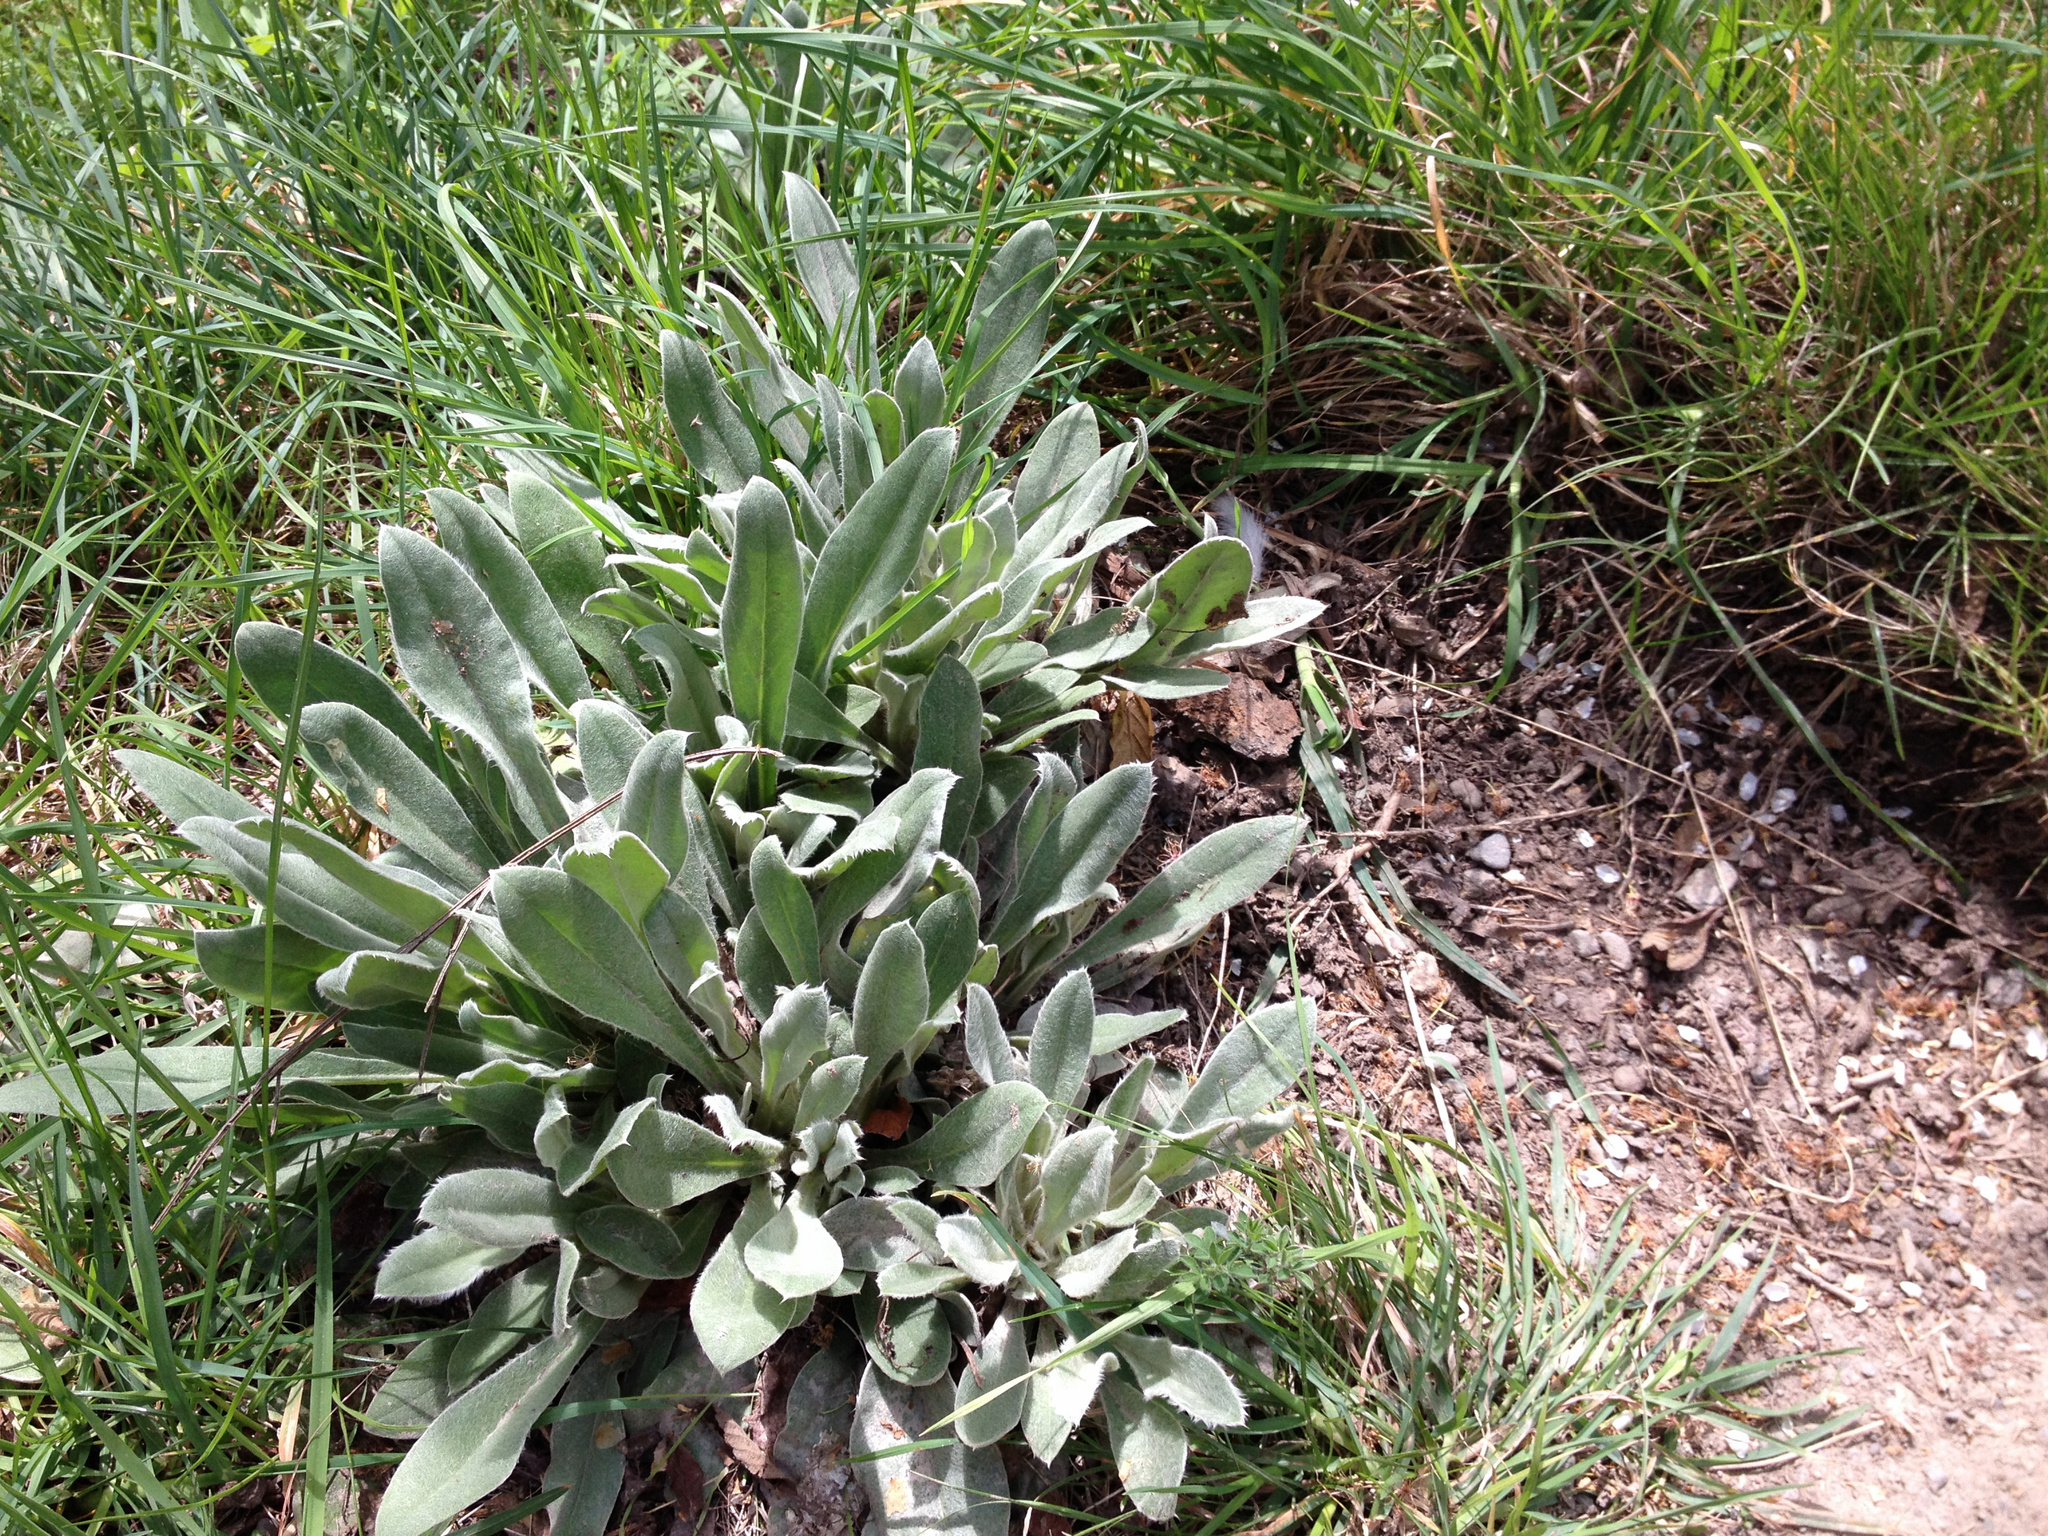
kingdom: Plantae
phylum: Tracheophyta
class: Magnoliopsida
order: Caryophyllales
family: Caryophyllaceae
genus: Silene
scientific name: Silene coronaria
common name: Rose campion
